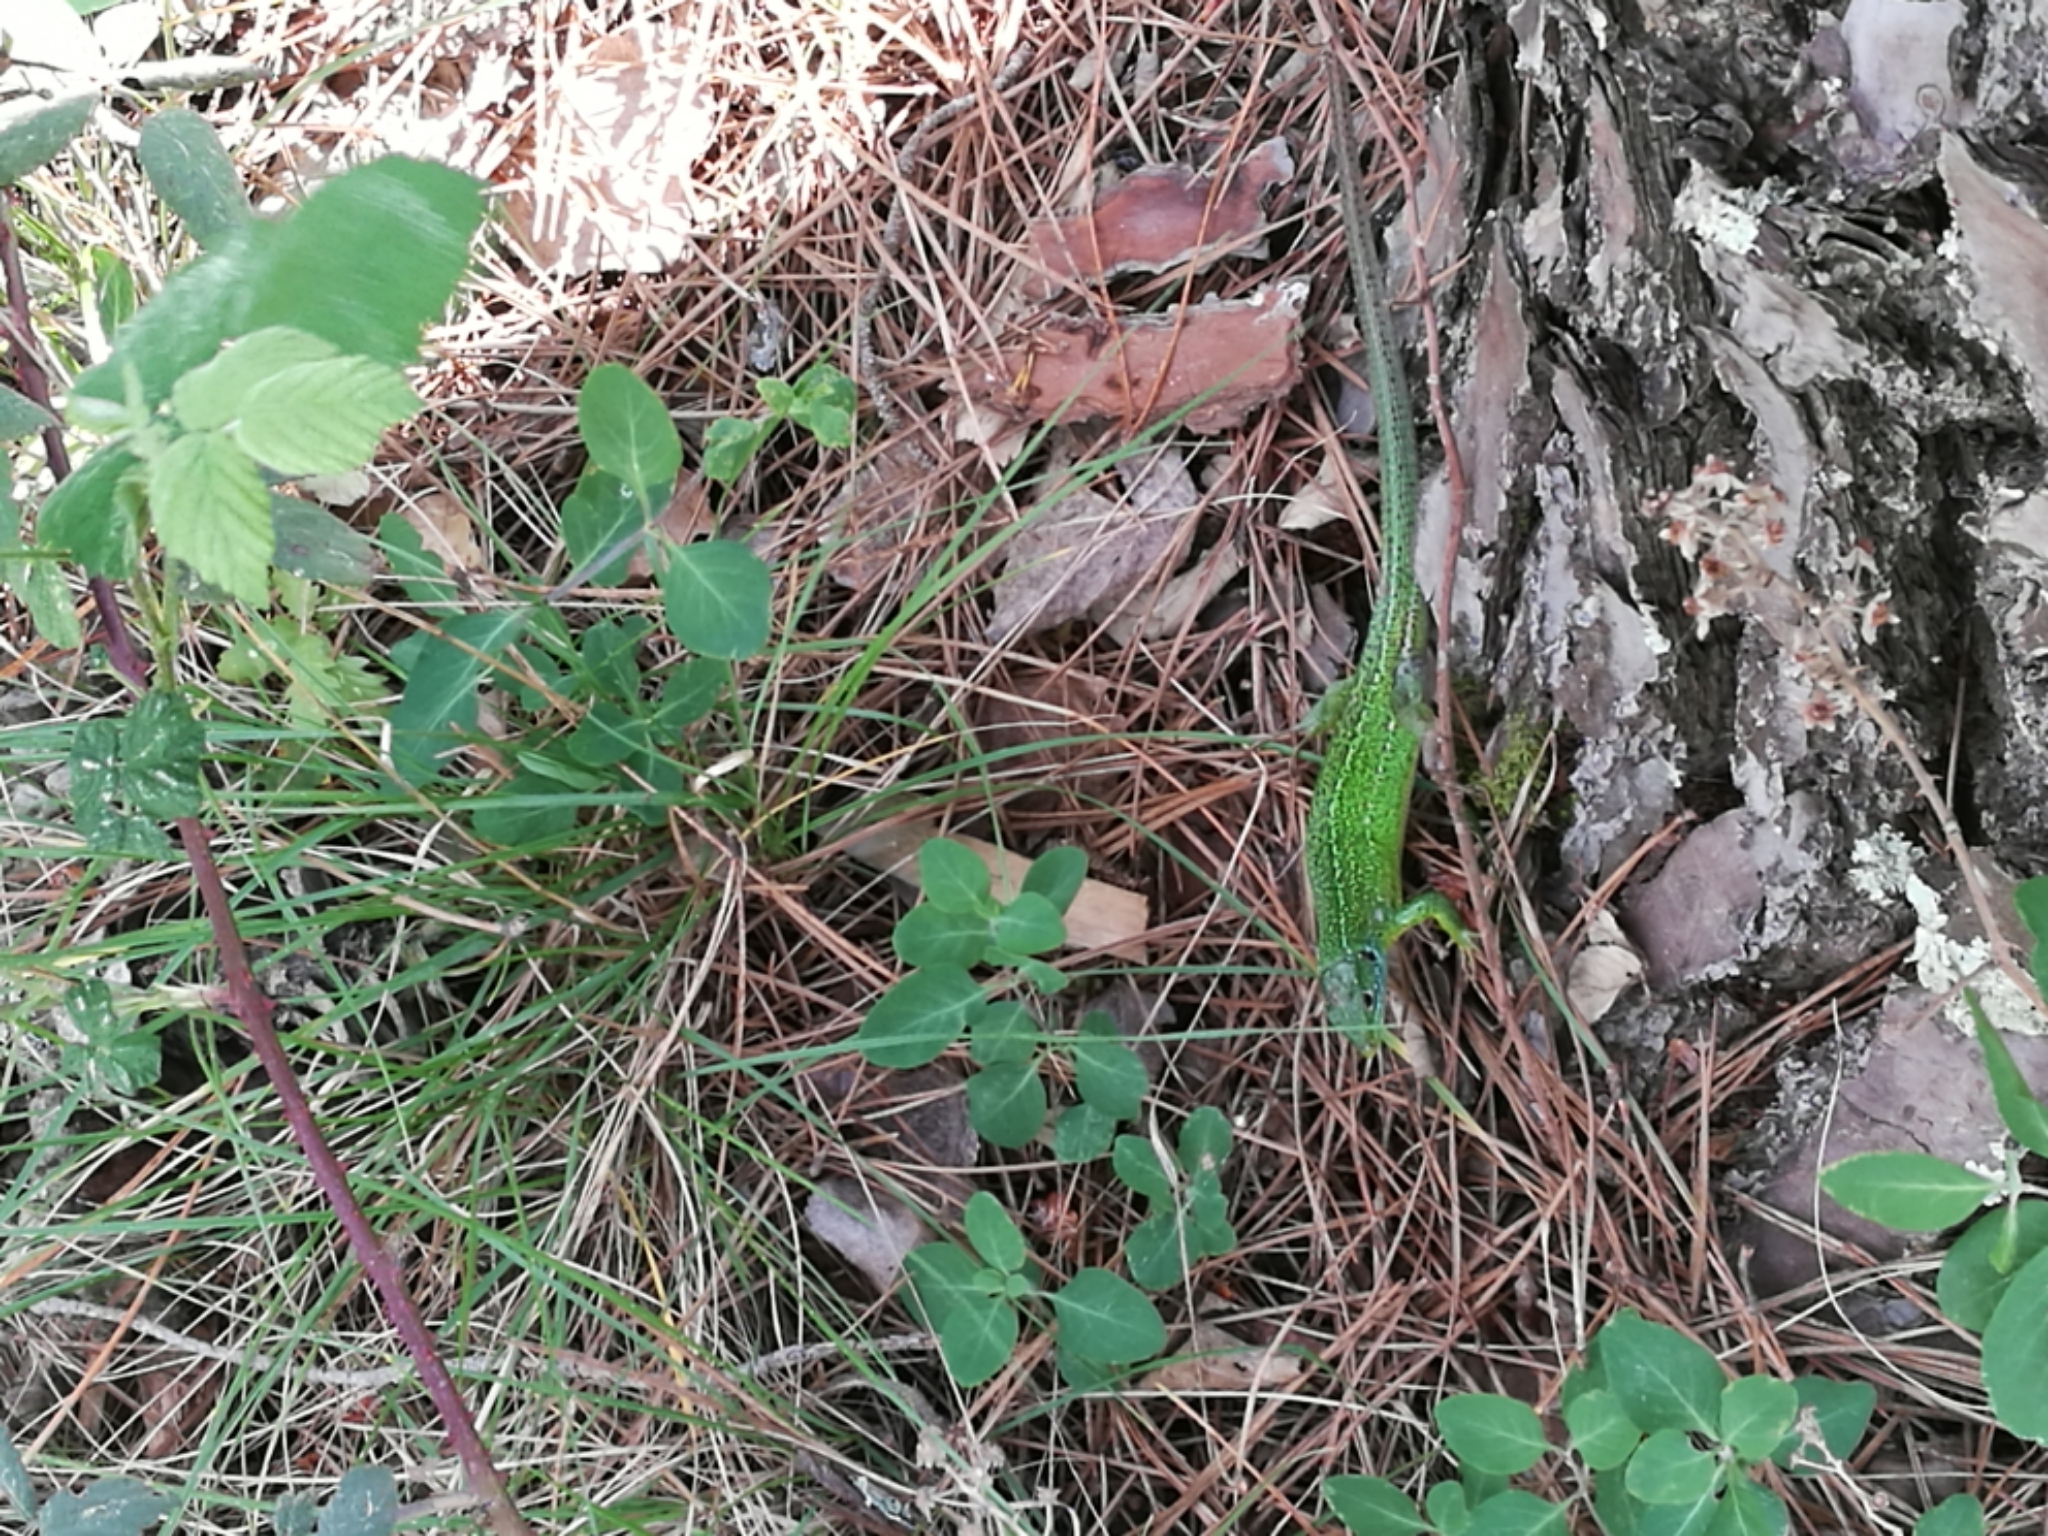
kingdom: Animalia
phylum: Chordata
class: Squamata
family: Lacertidae
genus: Lacerta
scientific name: Lacerta bilineata
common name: Western green lizard
